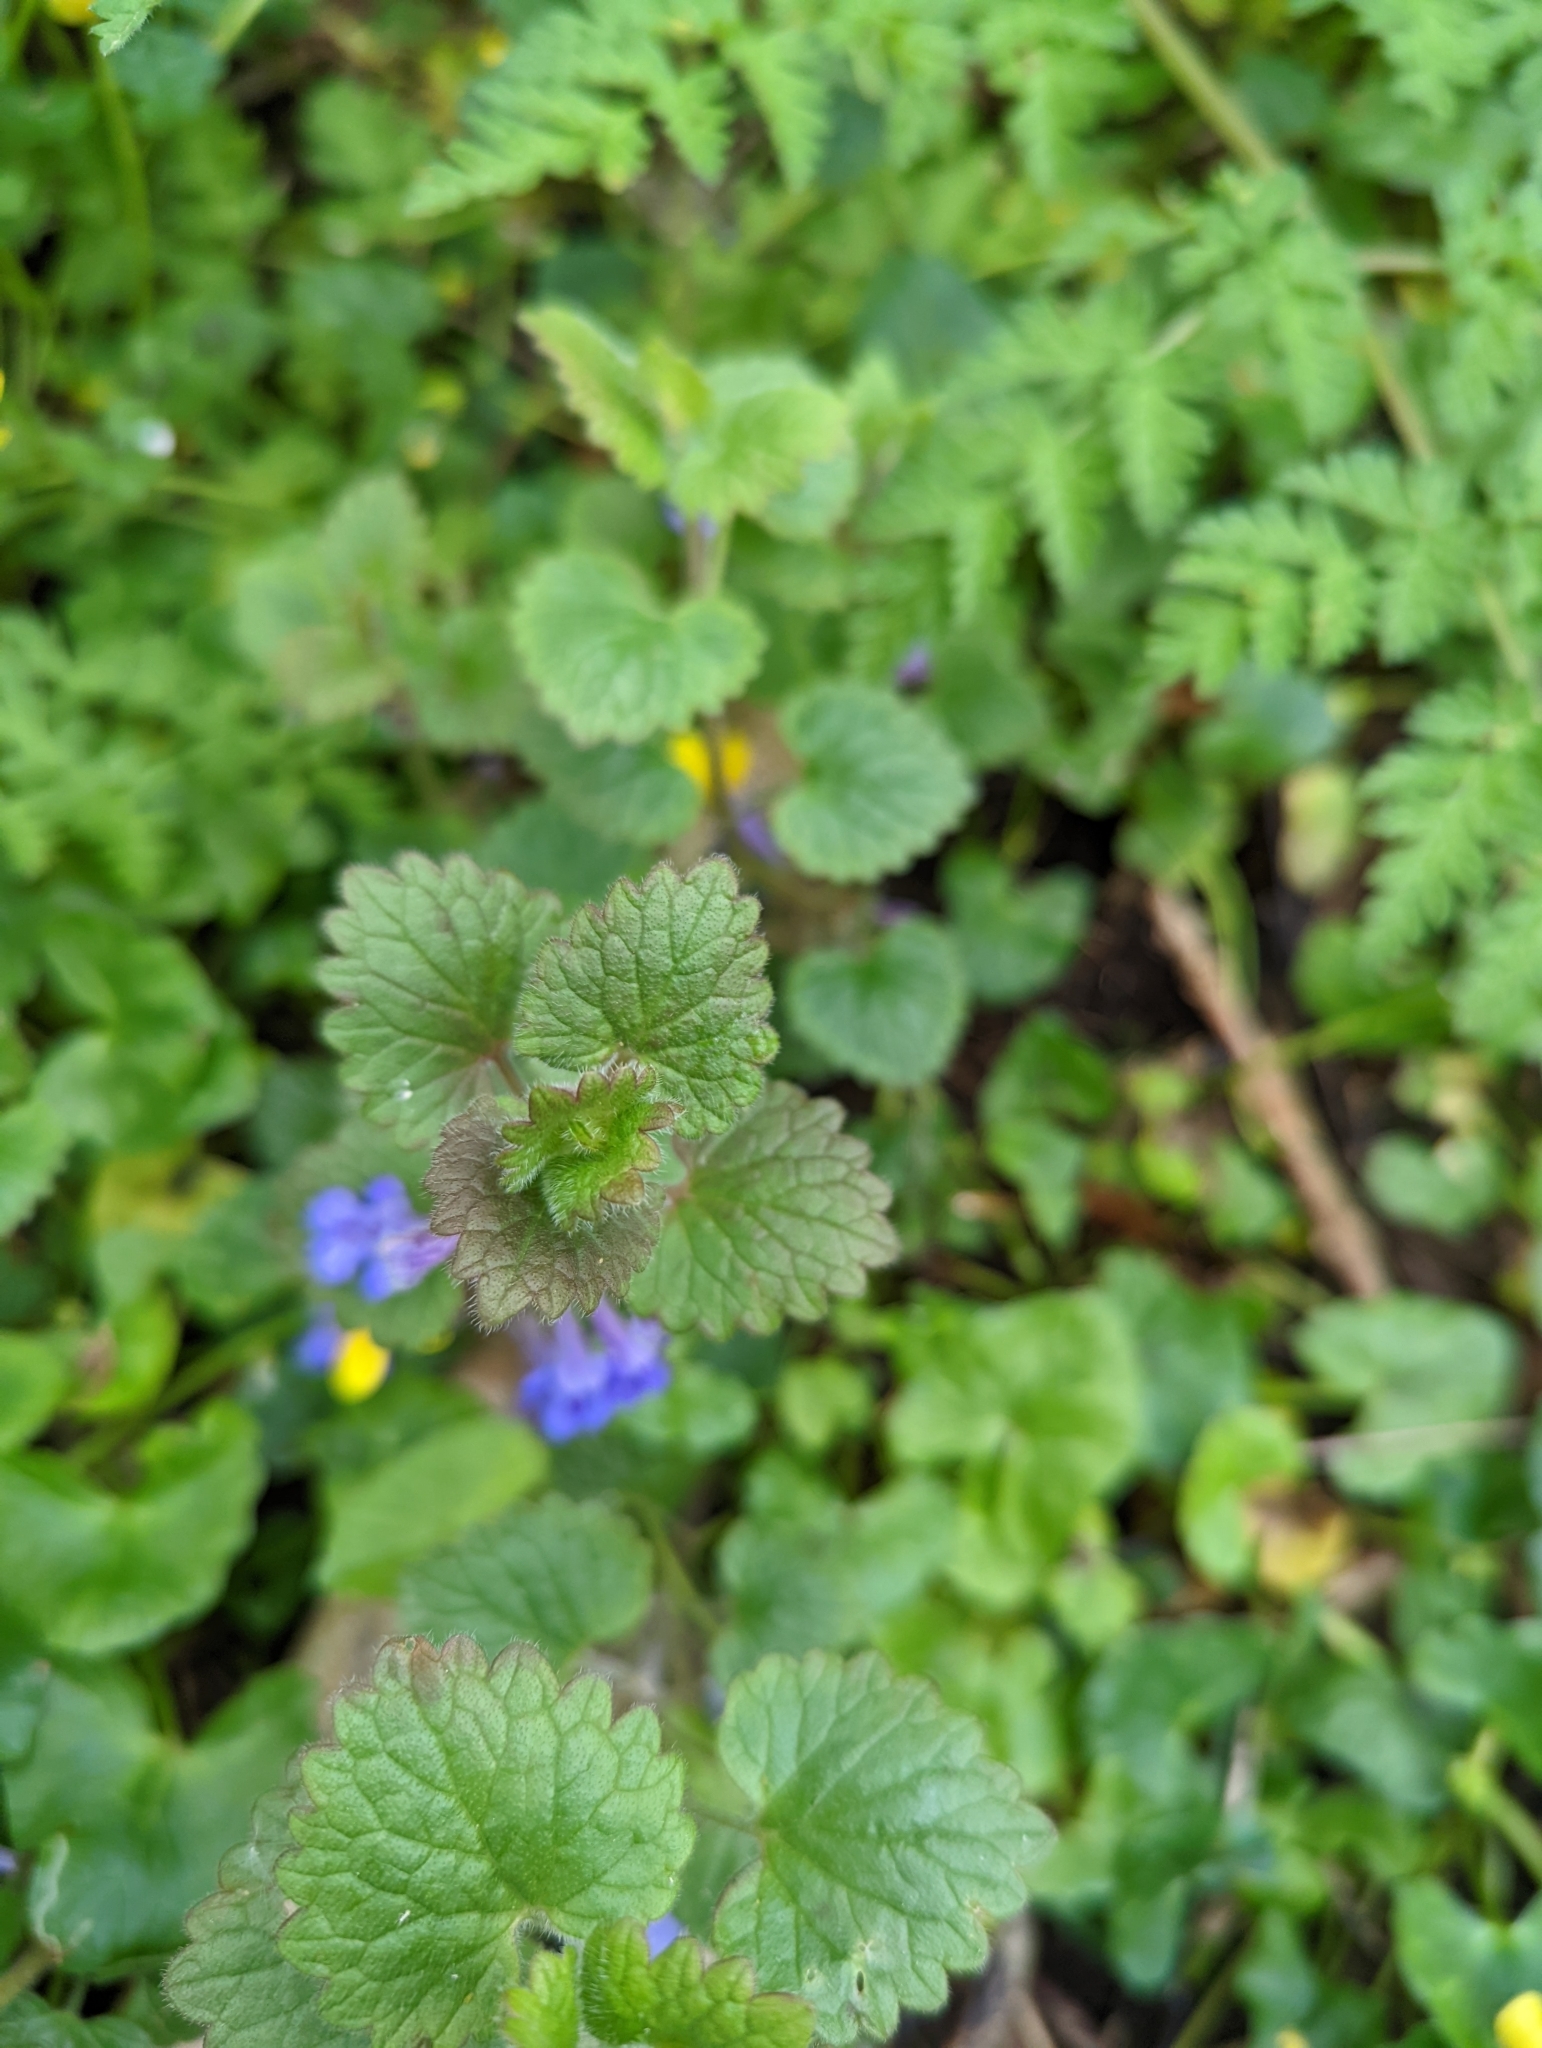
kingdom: Plantae
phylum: Tracheophyta
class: Magnoliopsida
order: Lamiales
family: Lamiaceae
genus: Glechoma
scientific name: Glechoma hederacea
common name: Ground ivy
